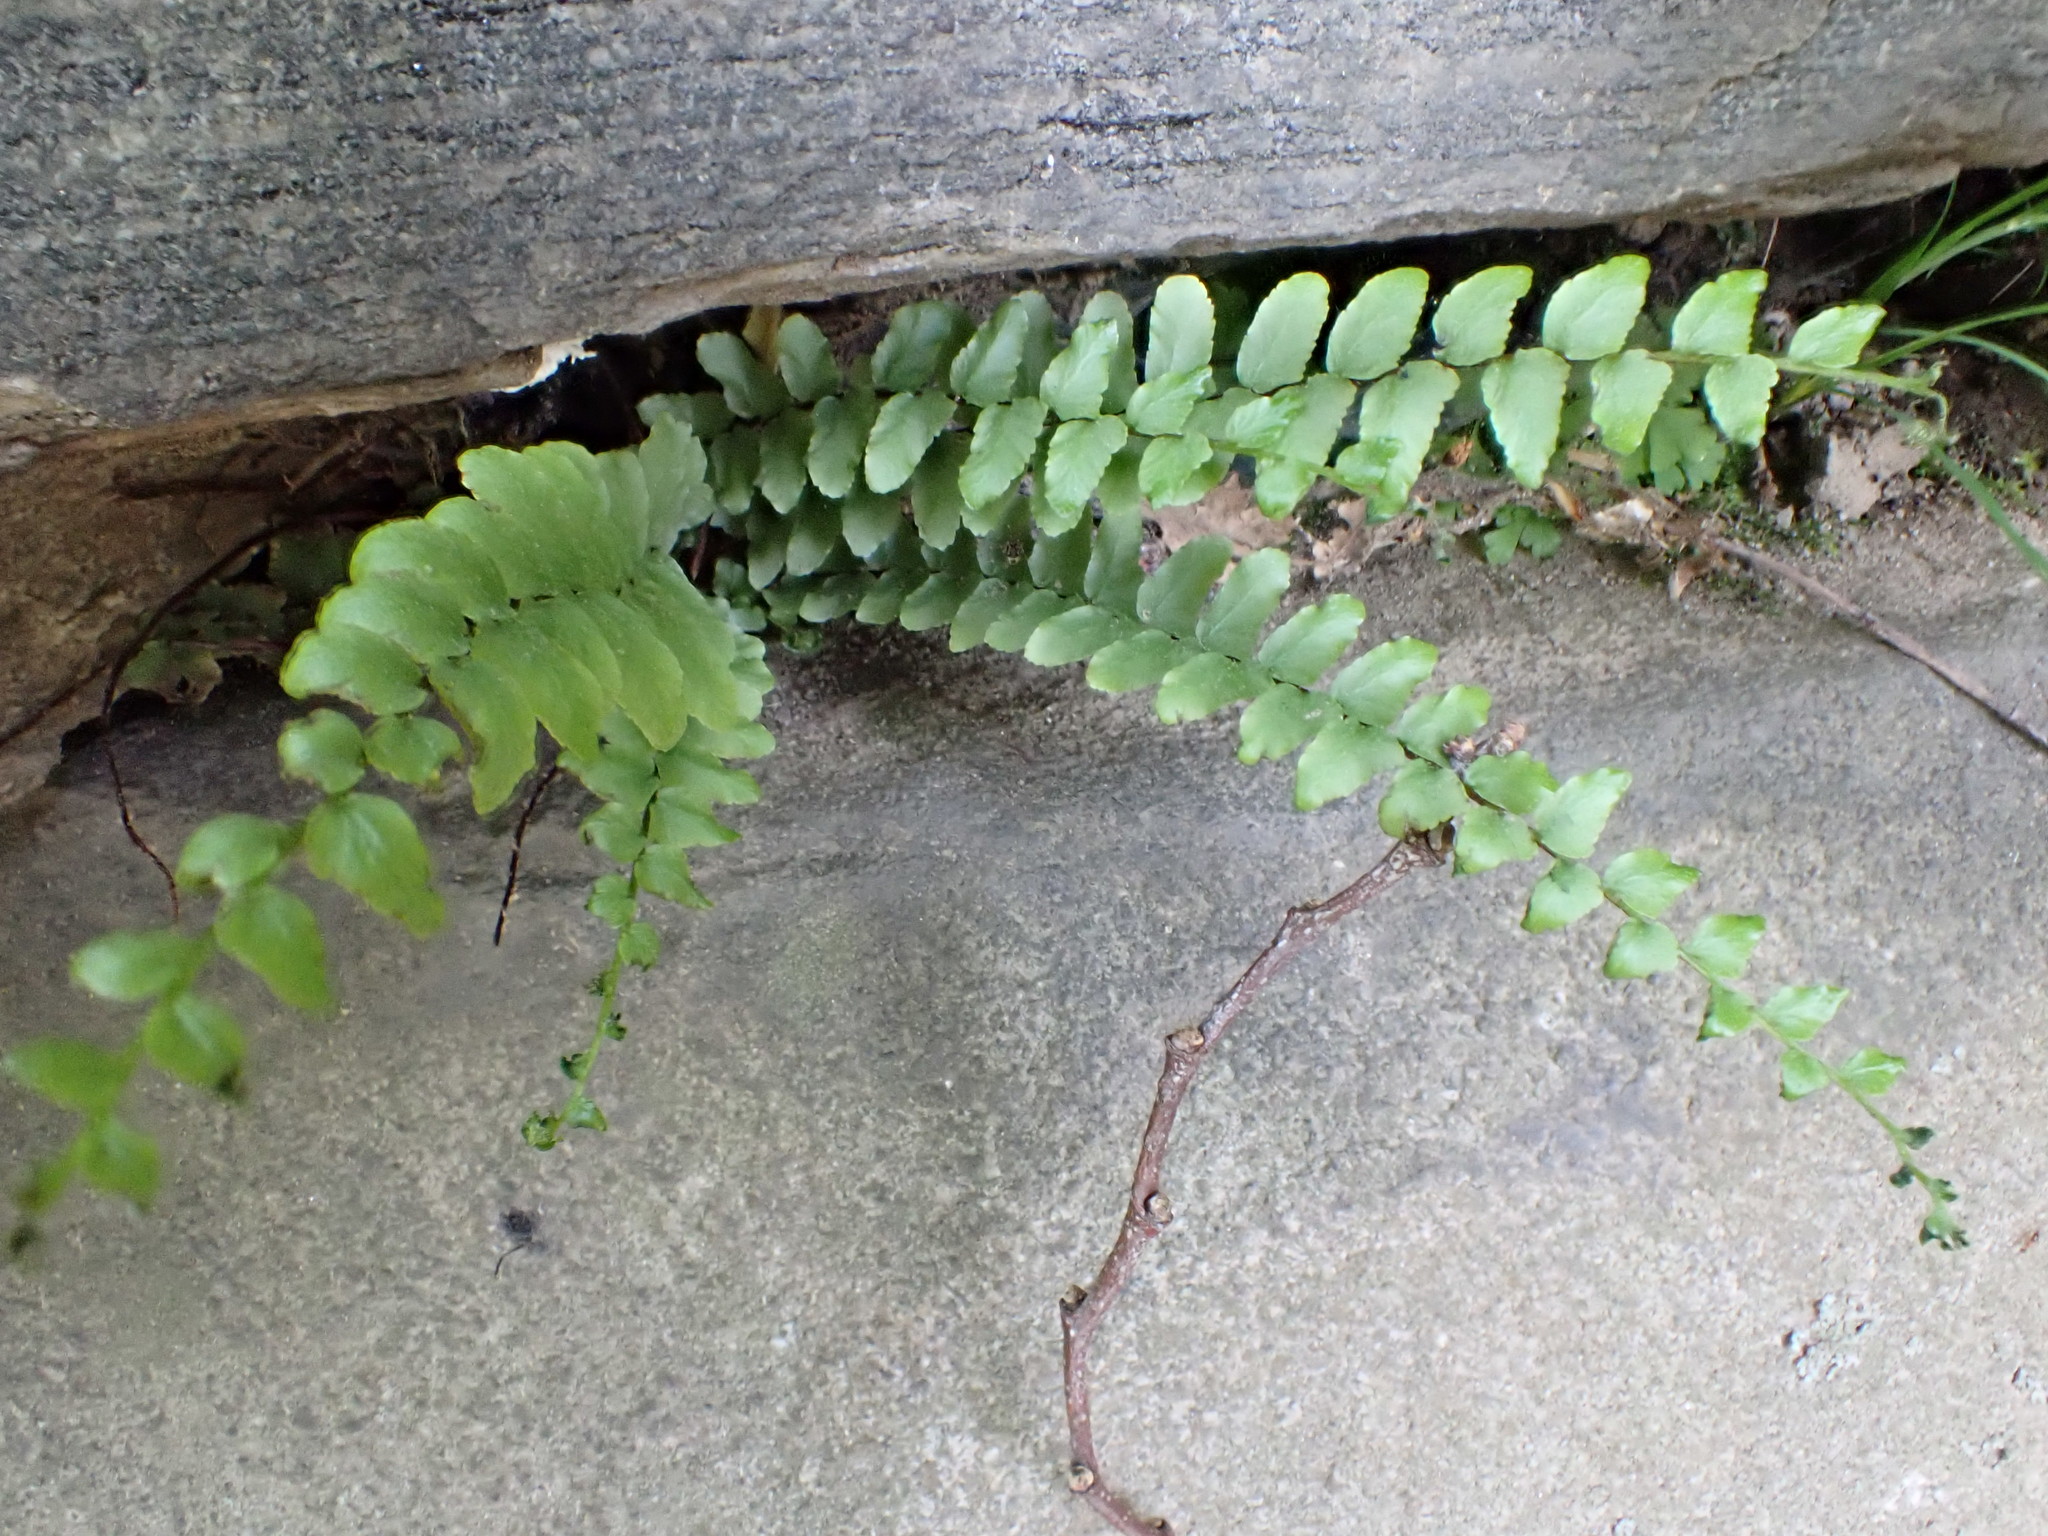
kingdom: Plantae
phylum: Tracheophyta
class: Polypodiopsida
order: Polypodiales
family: Aspleniaceae
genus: Asplenium
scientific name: Asplenium platyneuron
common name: Ebony spleenwort
